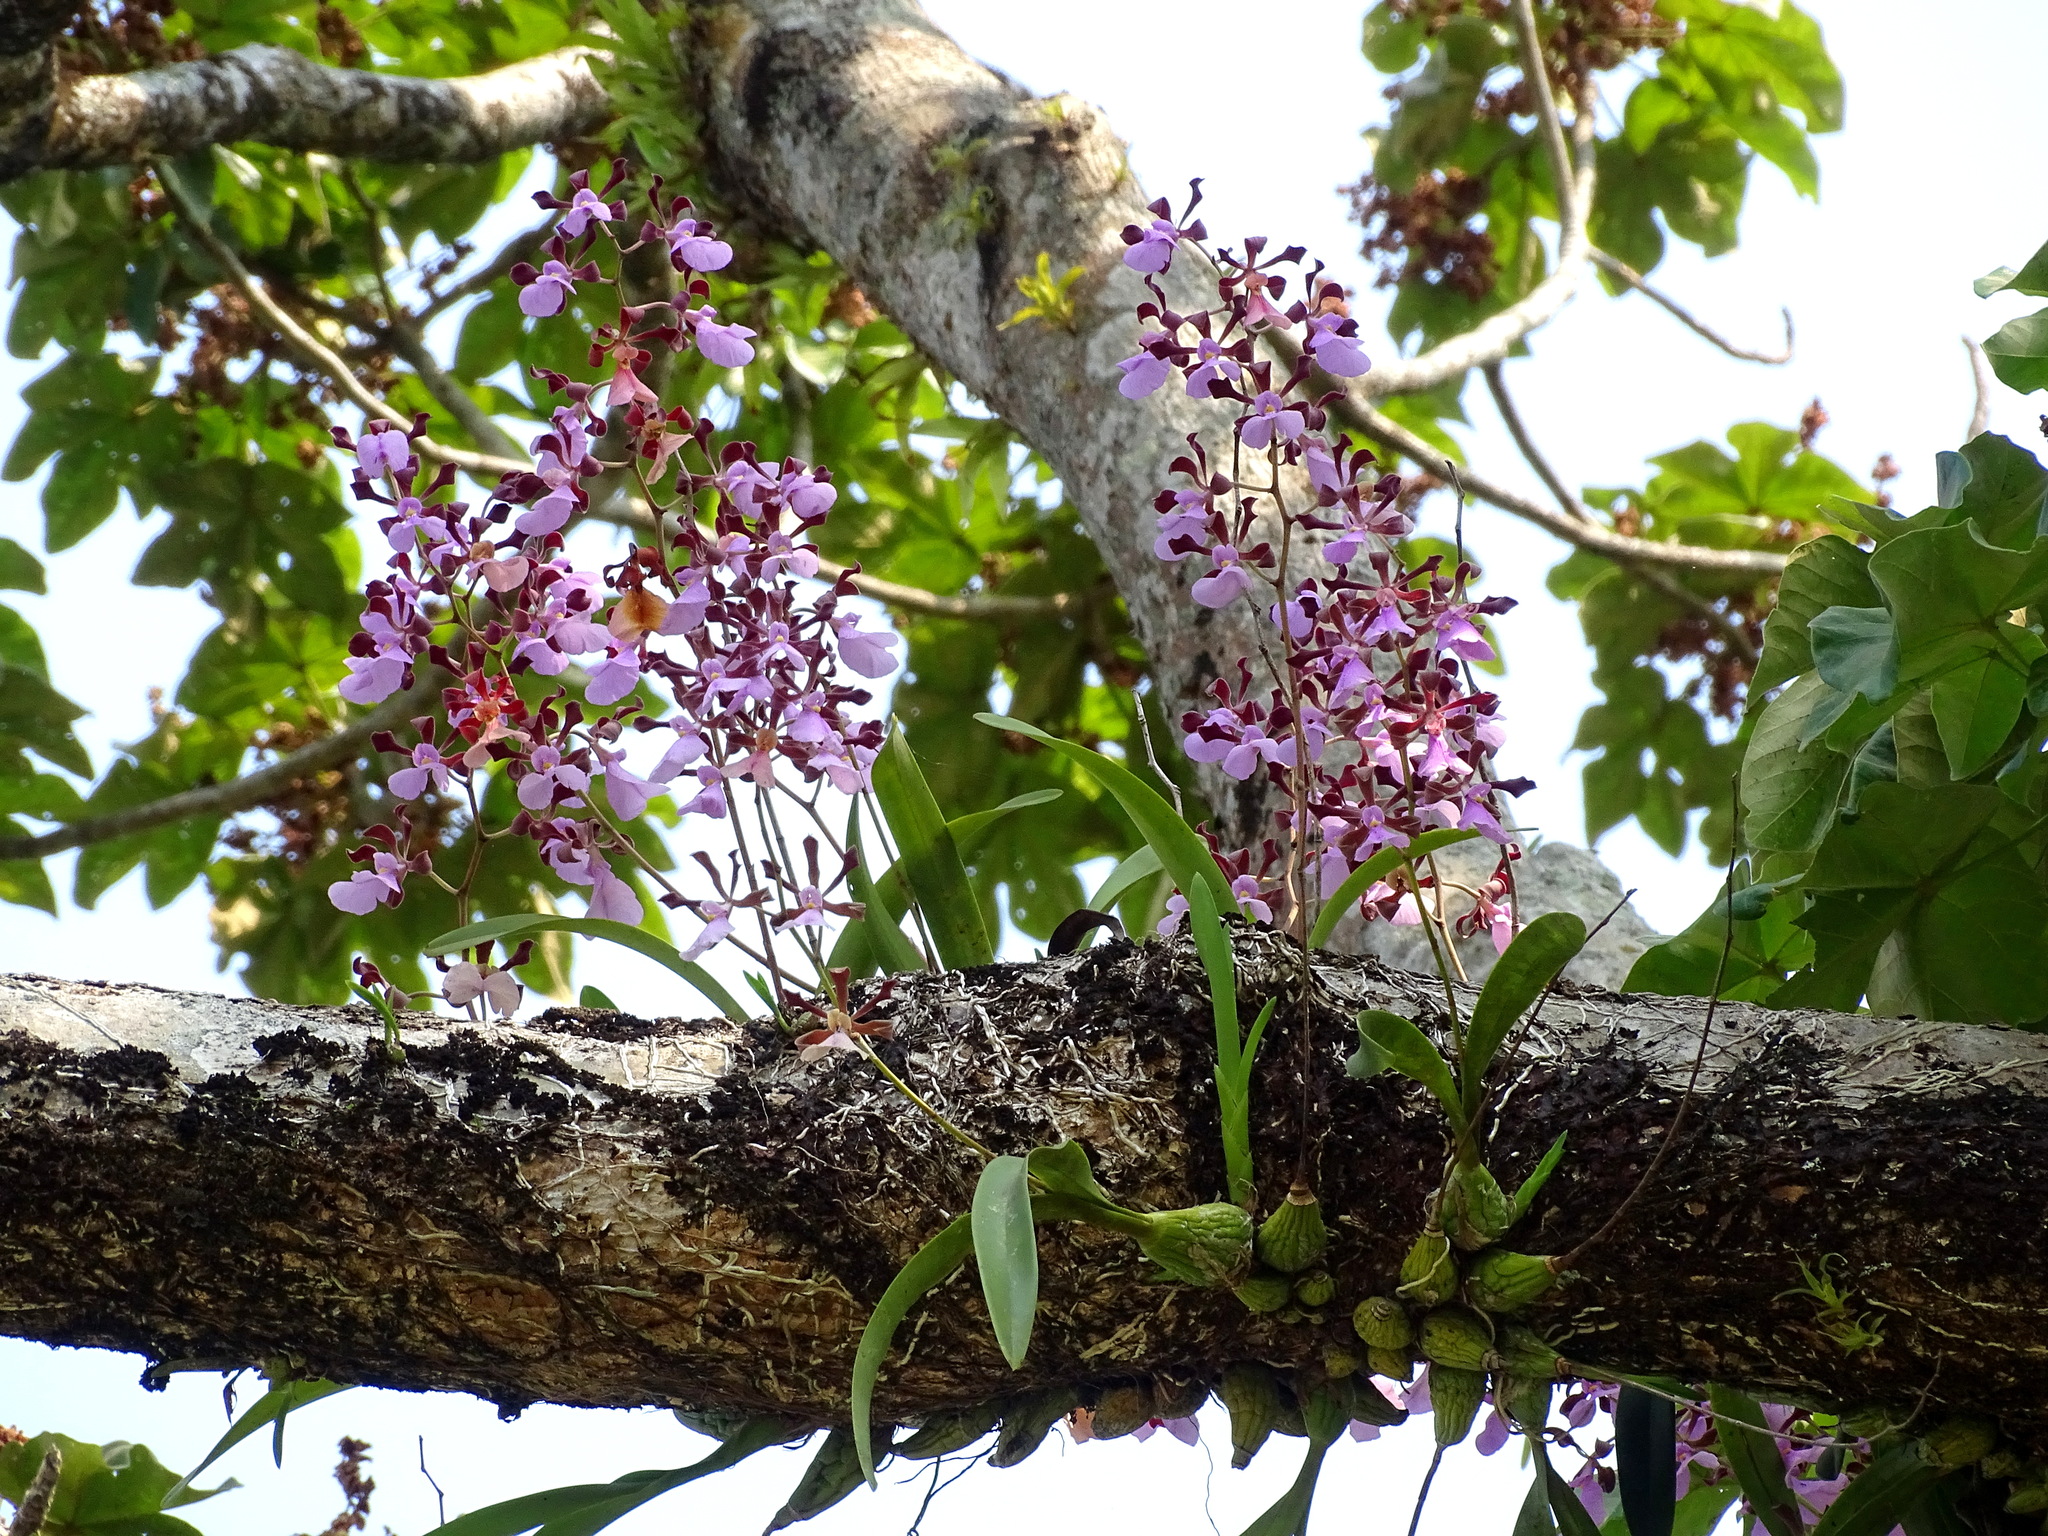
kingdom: Plantae
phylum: Tracheophyta
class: Liliopsida
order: Asparagales
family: Orchidaceae
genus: Encyclia
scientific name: Encyclia cordigera
